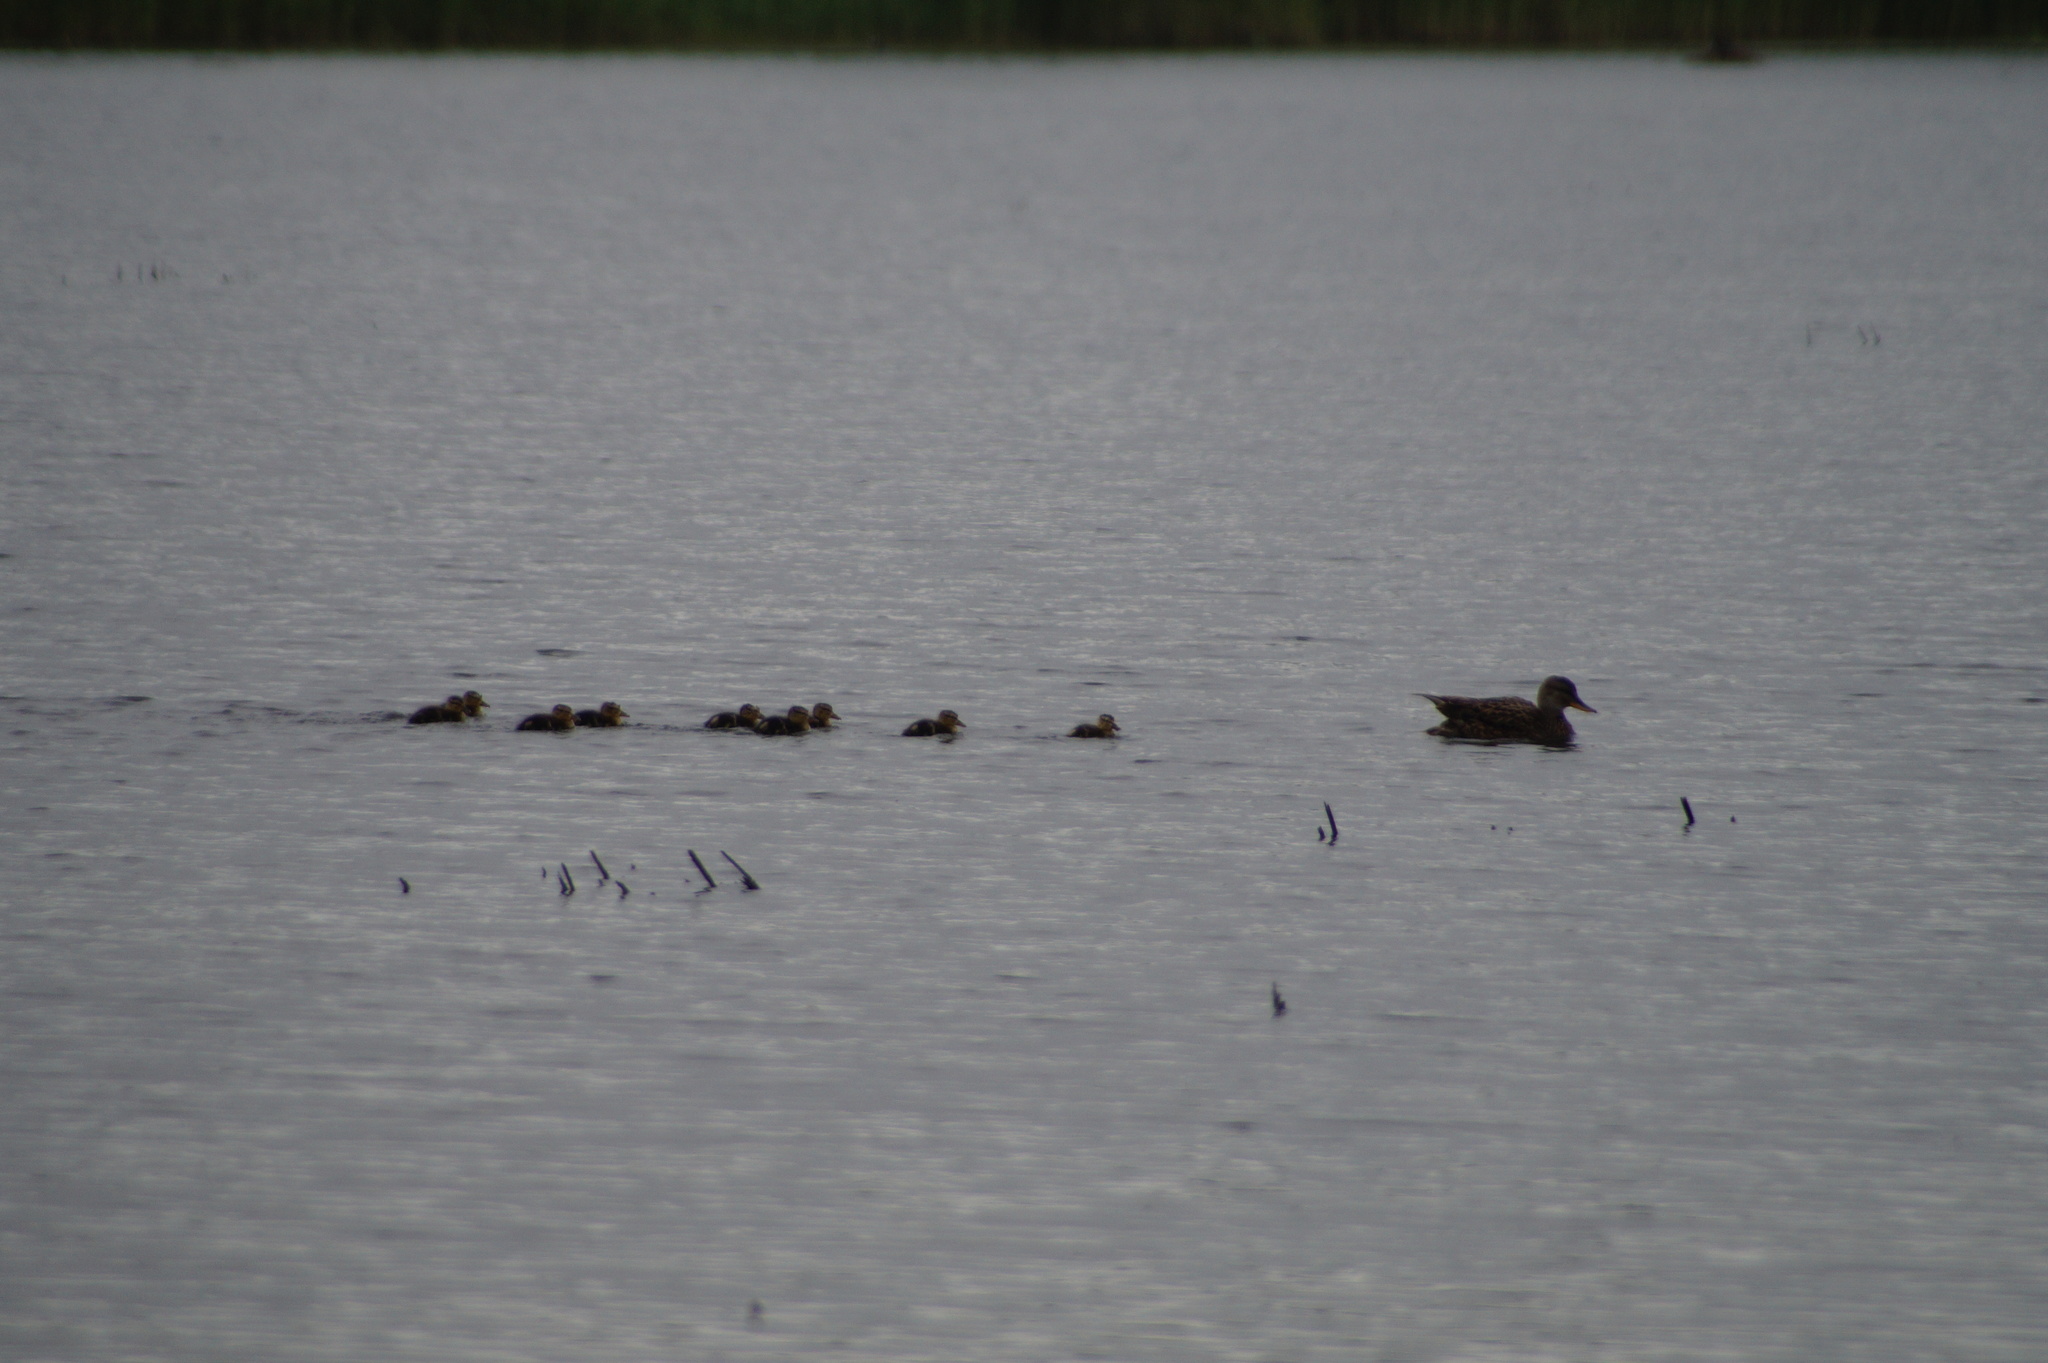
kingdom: Animalia
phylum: Chordata
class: Aves
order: Anseriformes
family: Anatidae
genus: Anas
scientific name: Anas platyrhynchos
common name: Mallard
